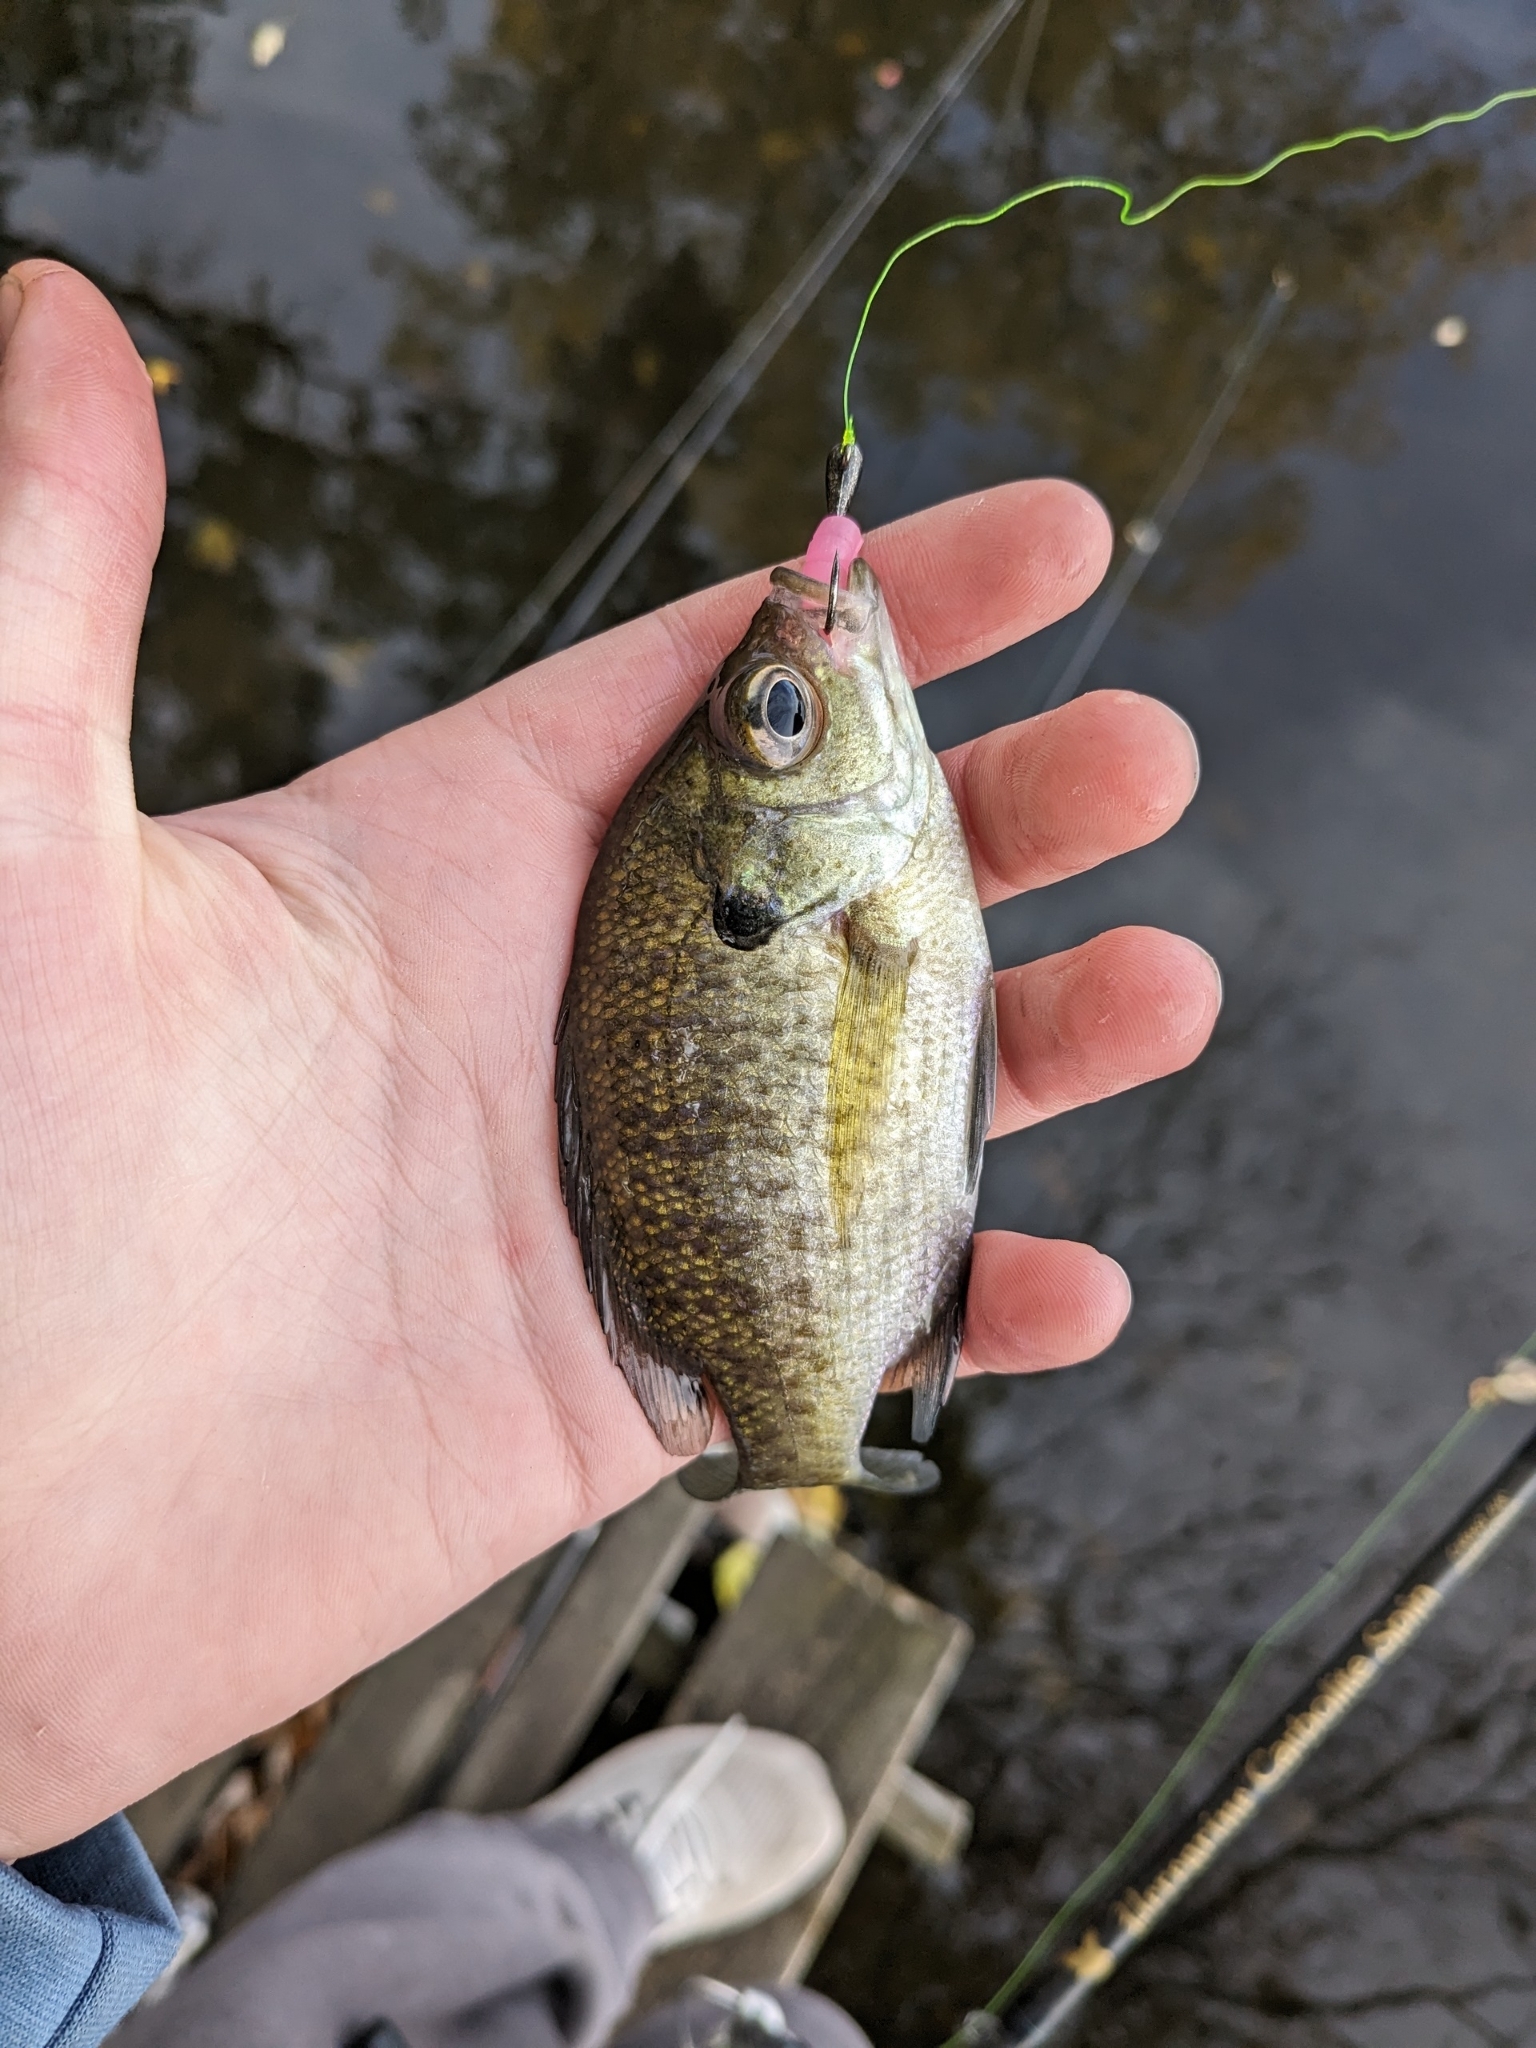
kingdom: Animalia
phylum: Chordata
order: Perciformes
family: Centrarchidae
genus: Lepomis
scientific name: Lepomis macrochirus
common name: Bluegill
